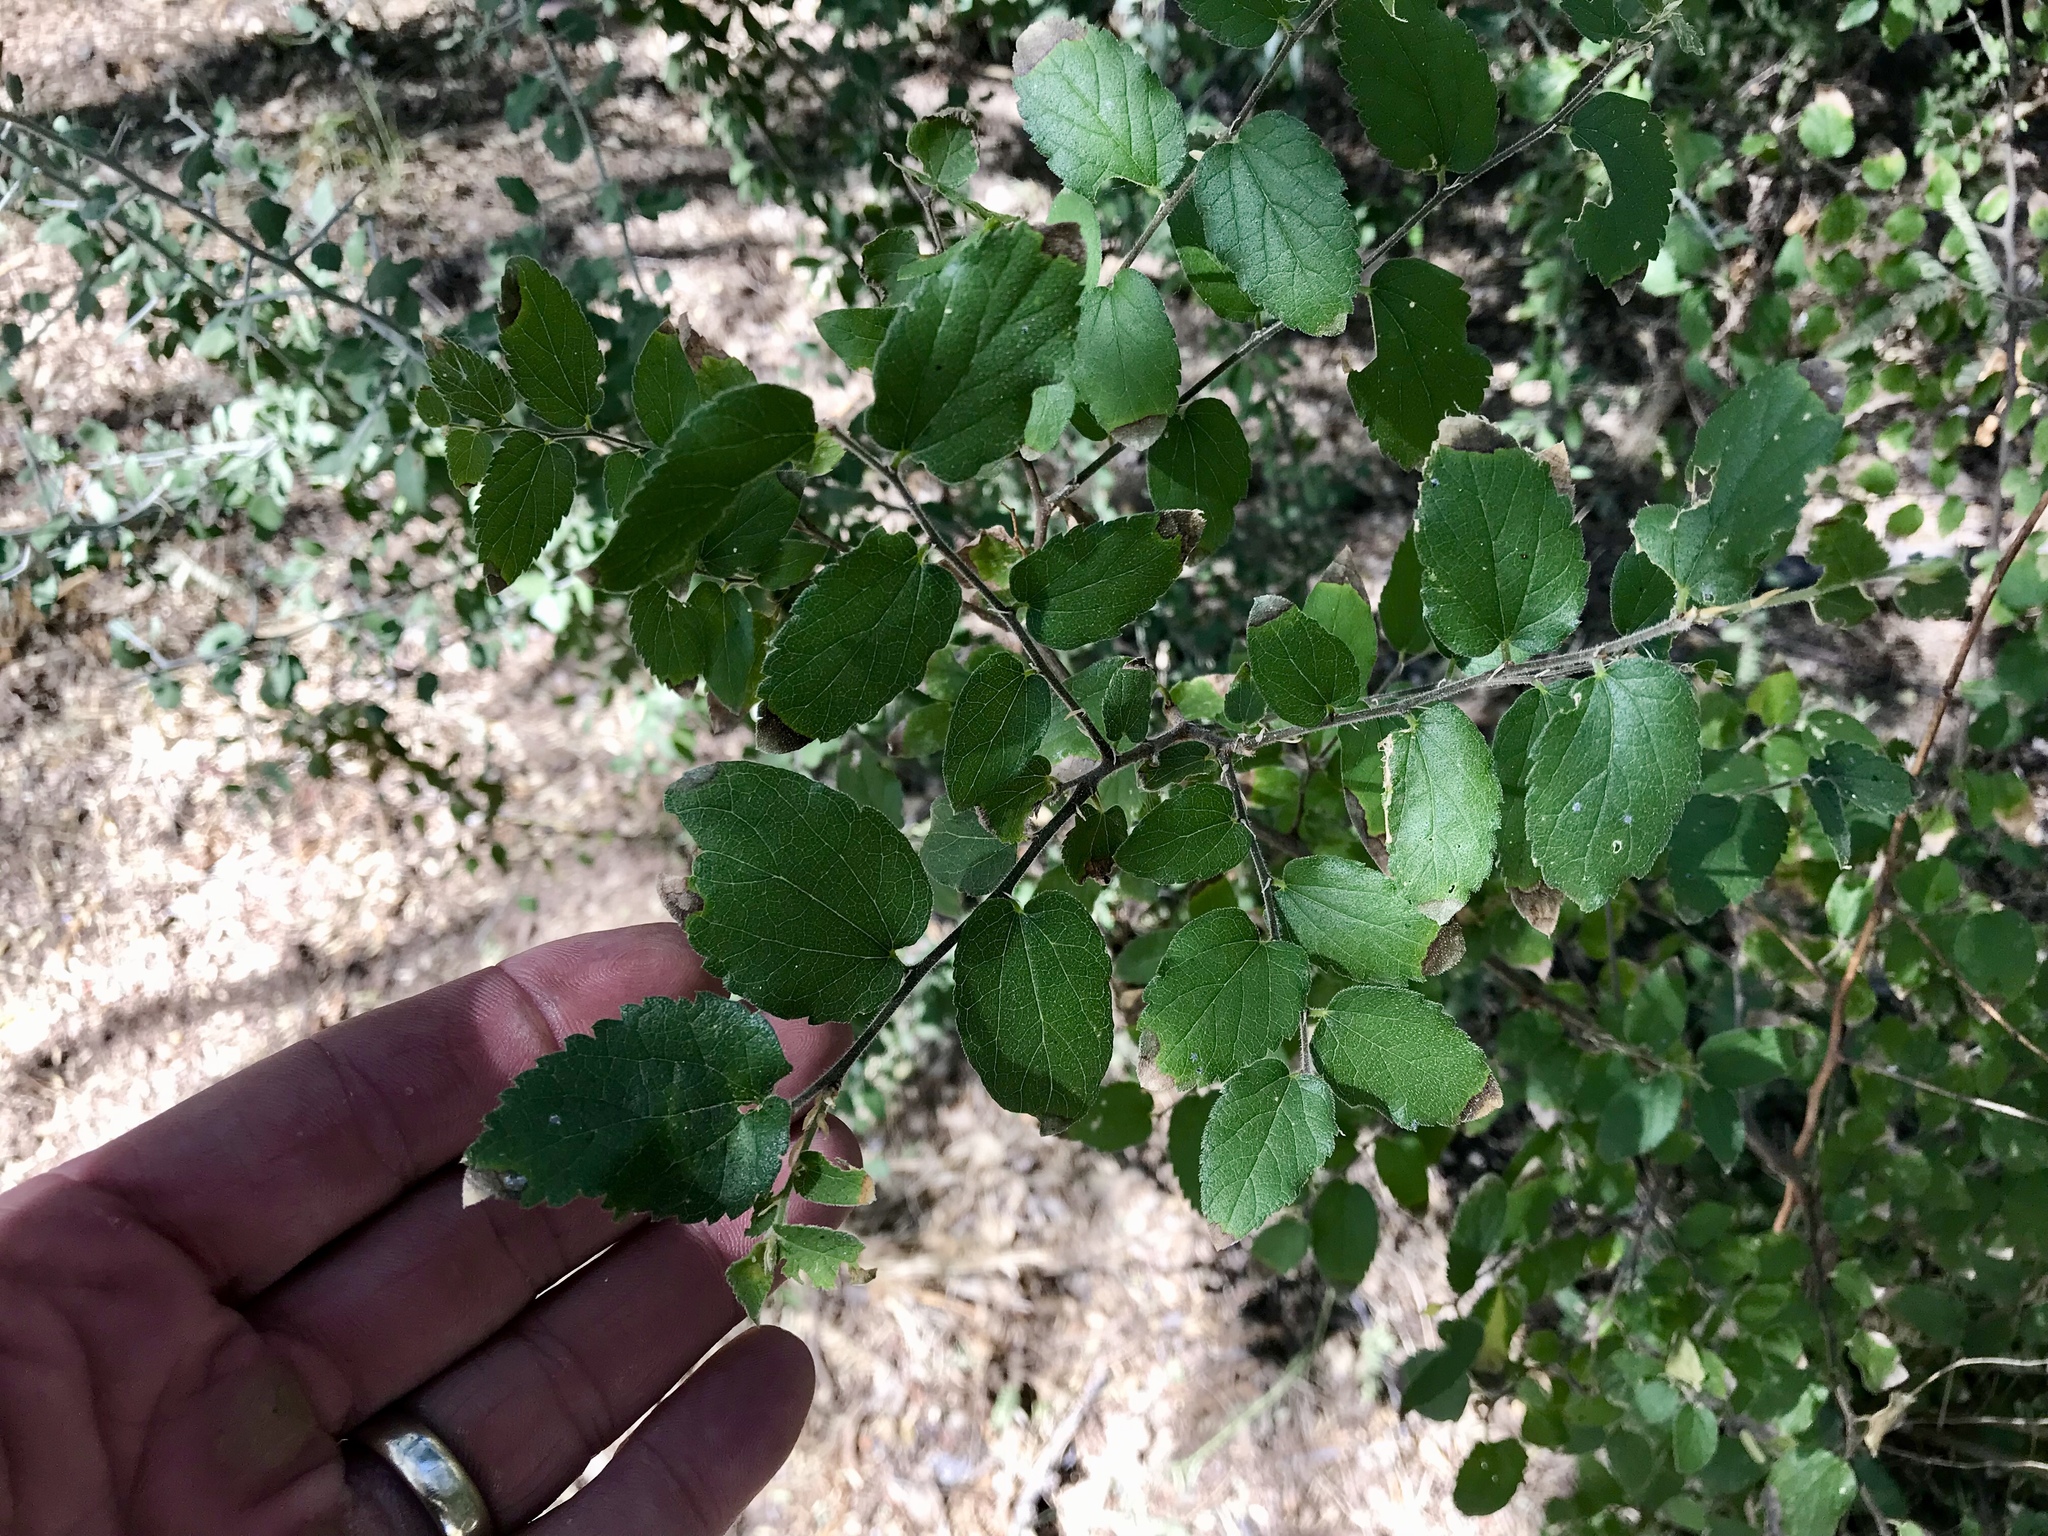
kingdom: Plantae
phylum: Tracheophyta
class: Magnoliopsida
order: Rosales
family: Cannabaceae
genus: Celtis
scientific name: Celtis pallida
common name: Desert hackberry
